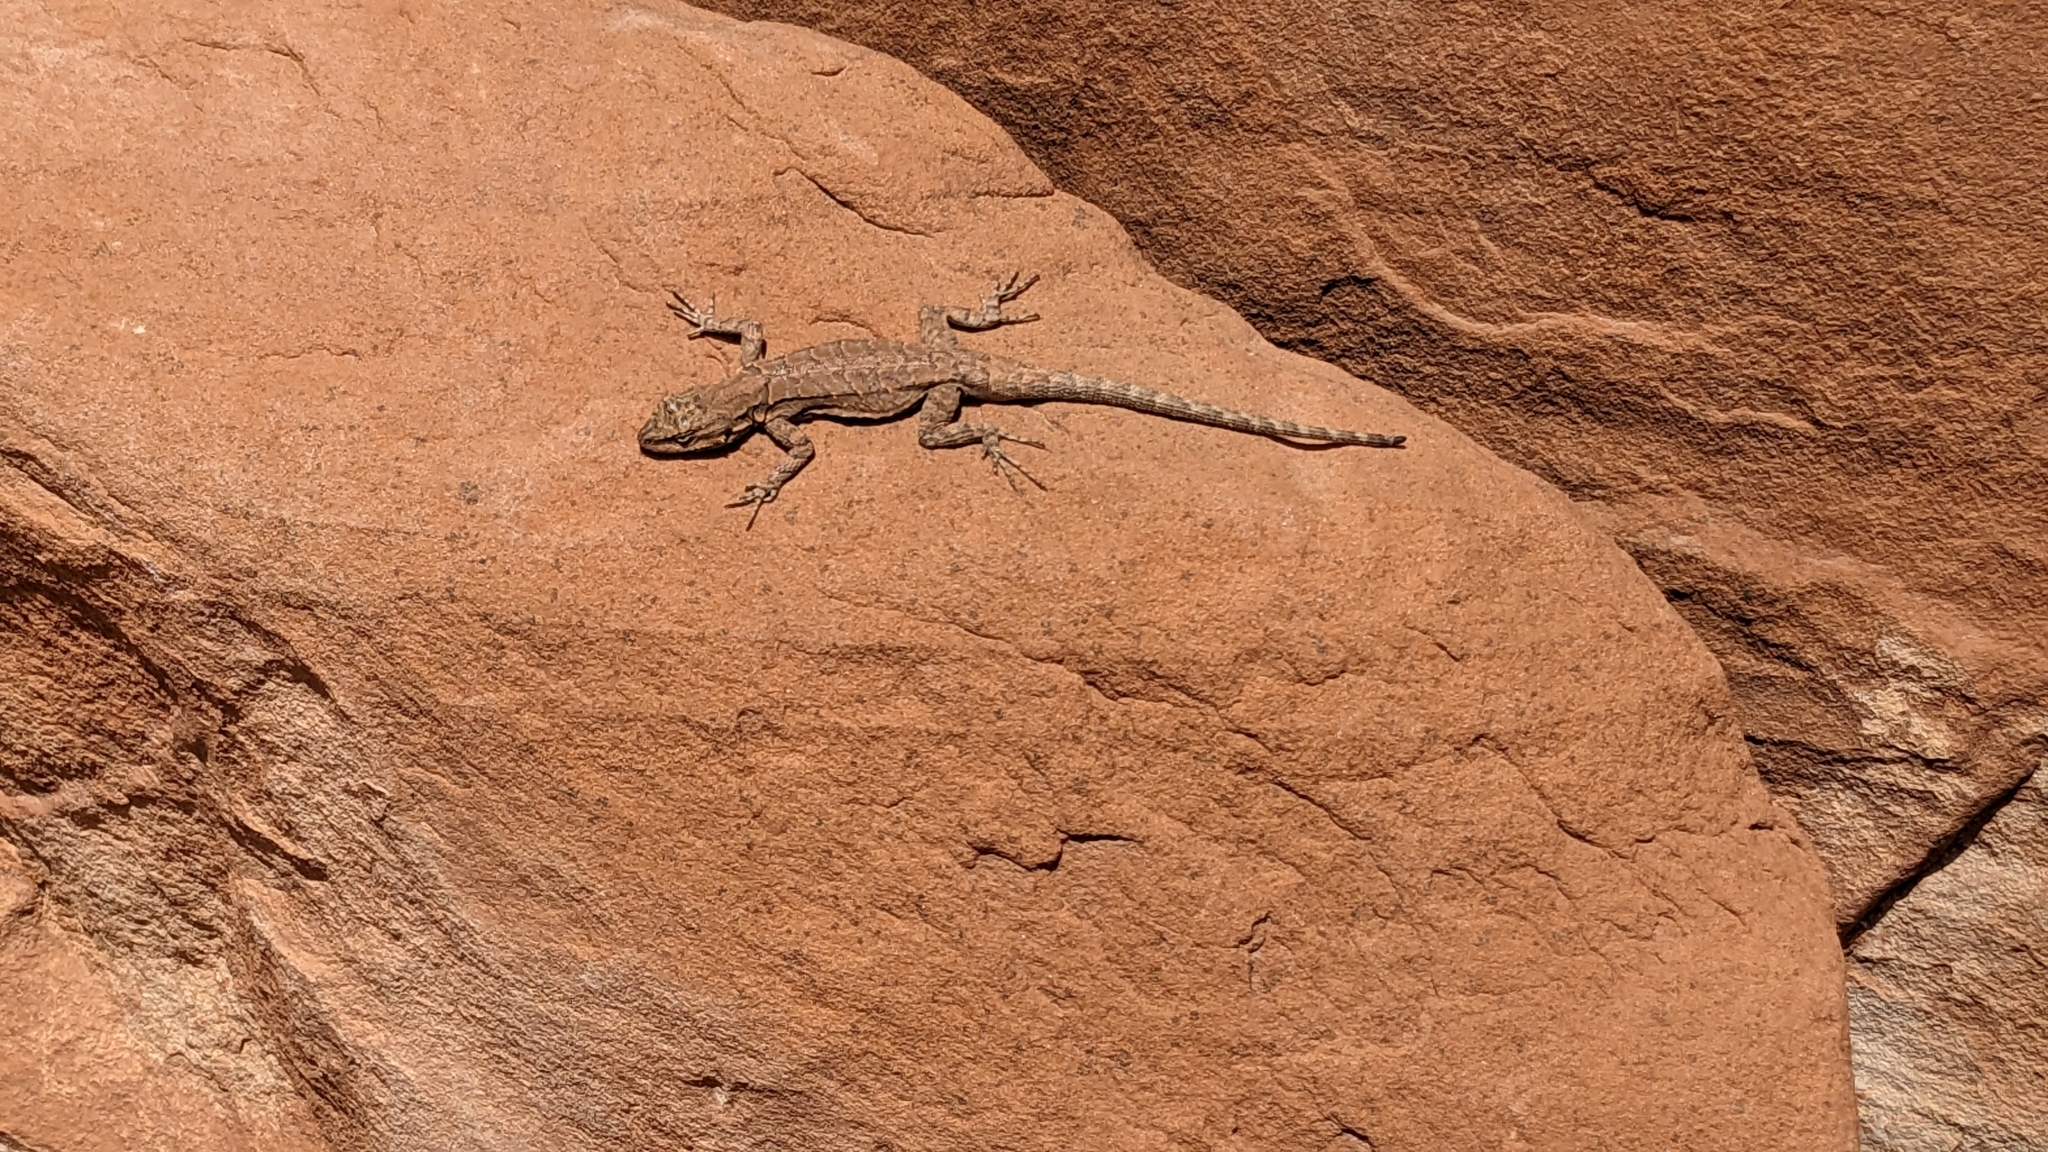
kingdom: Animalia
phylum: Chordata
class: Squamata
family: Phrynosomatidae
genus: Urosaurus
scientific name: Urosaurus ornatus
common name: Ornate tree lizard
